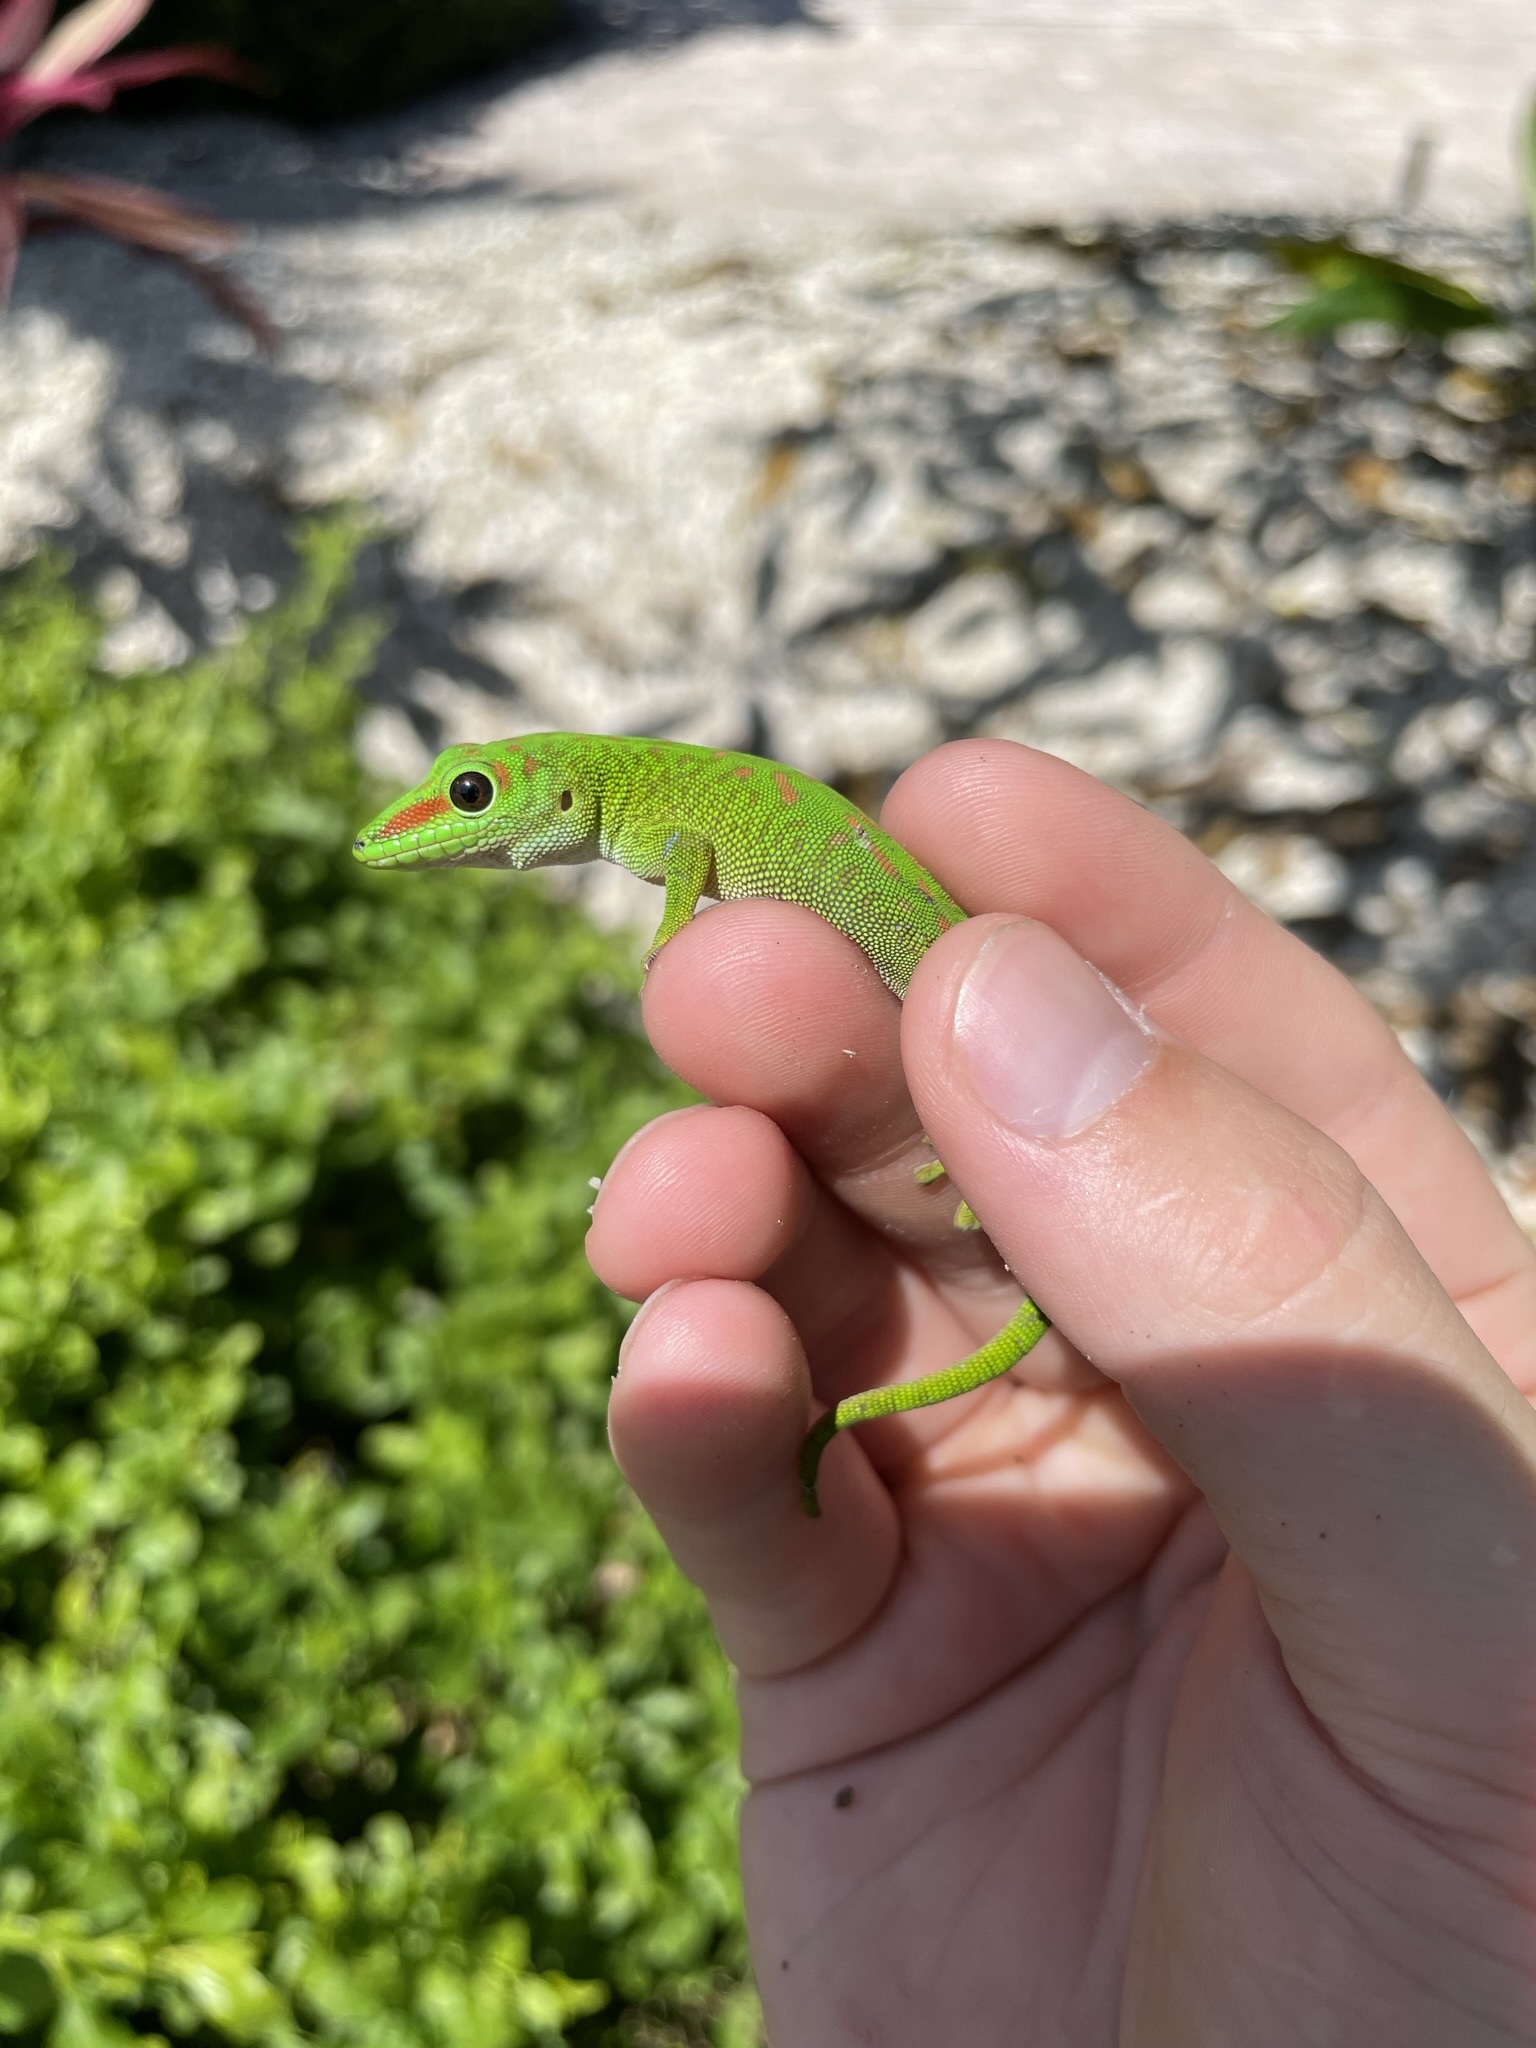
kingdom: Animalia
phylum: Chordata
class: Squamata
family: Gekkonidae
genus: Phelsuma
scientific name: Phelsuma grandis
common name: Madagascar giant day gecko
